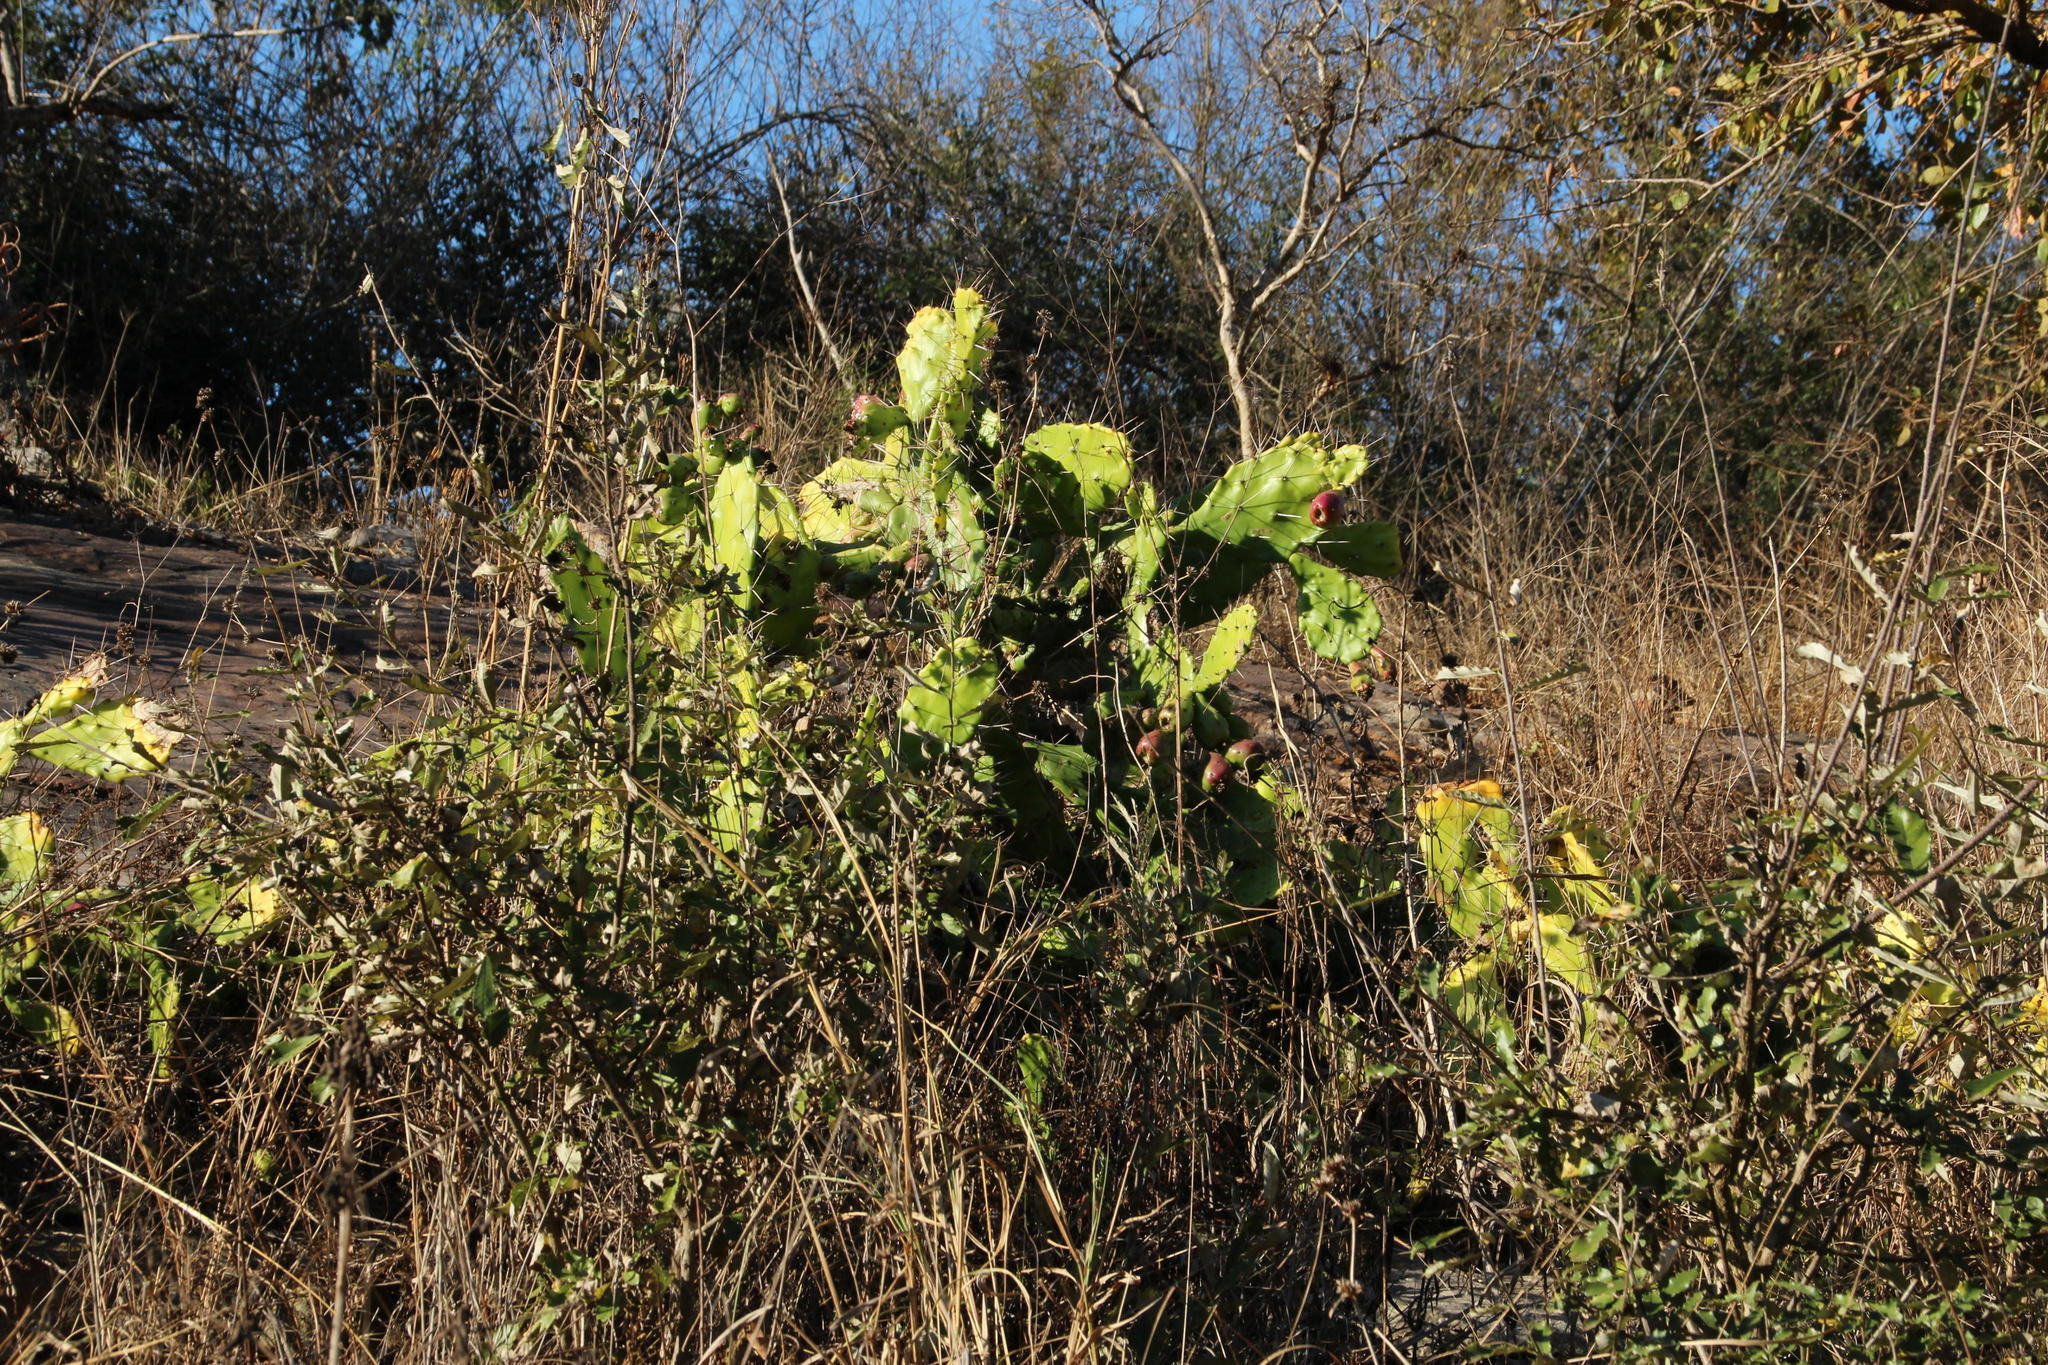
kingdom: Plantae
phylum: Tracheophyta
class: Magnoliopsida
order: Caryophyllales
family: Cactaceae
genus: Opuntia
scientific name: Opuntia monacantha
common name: Common pricklypear
